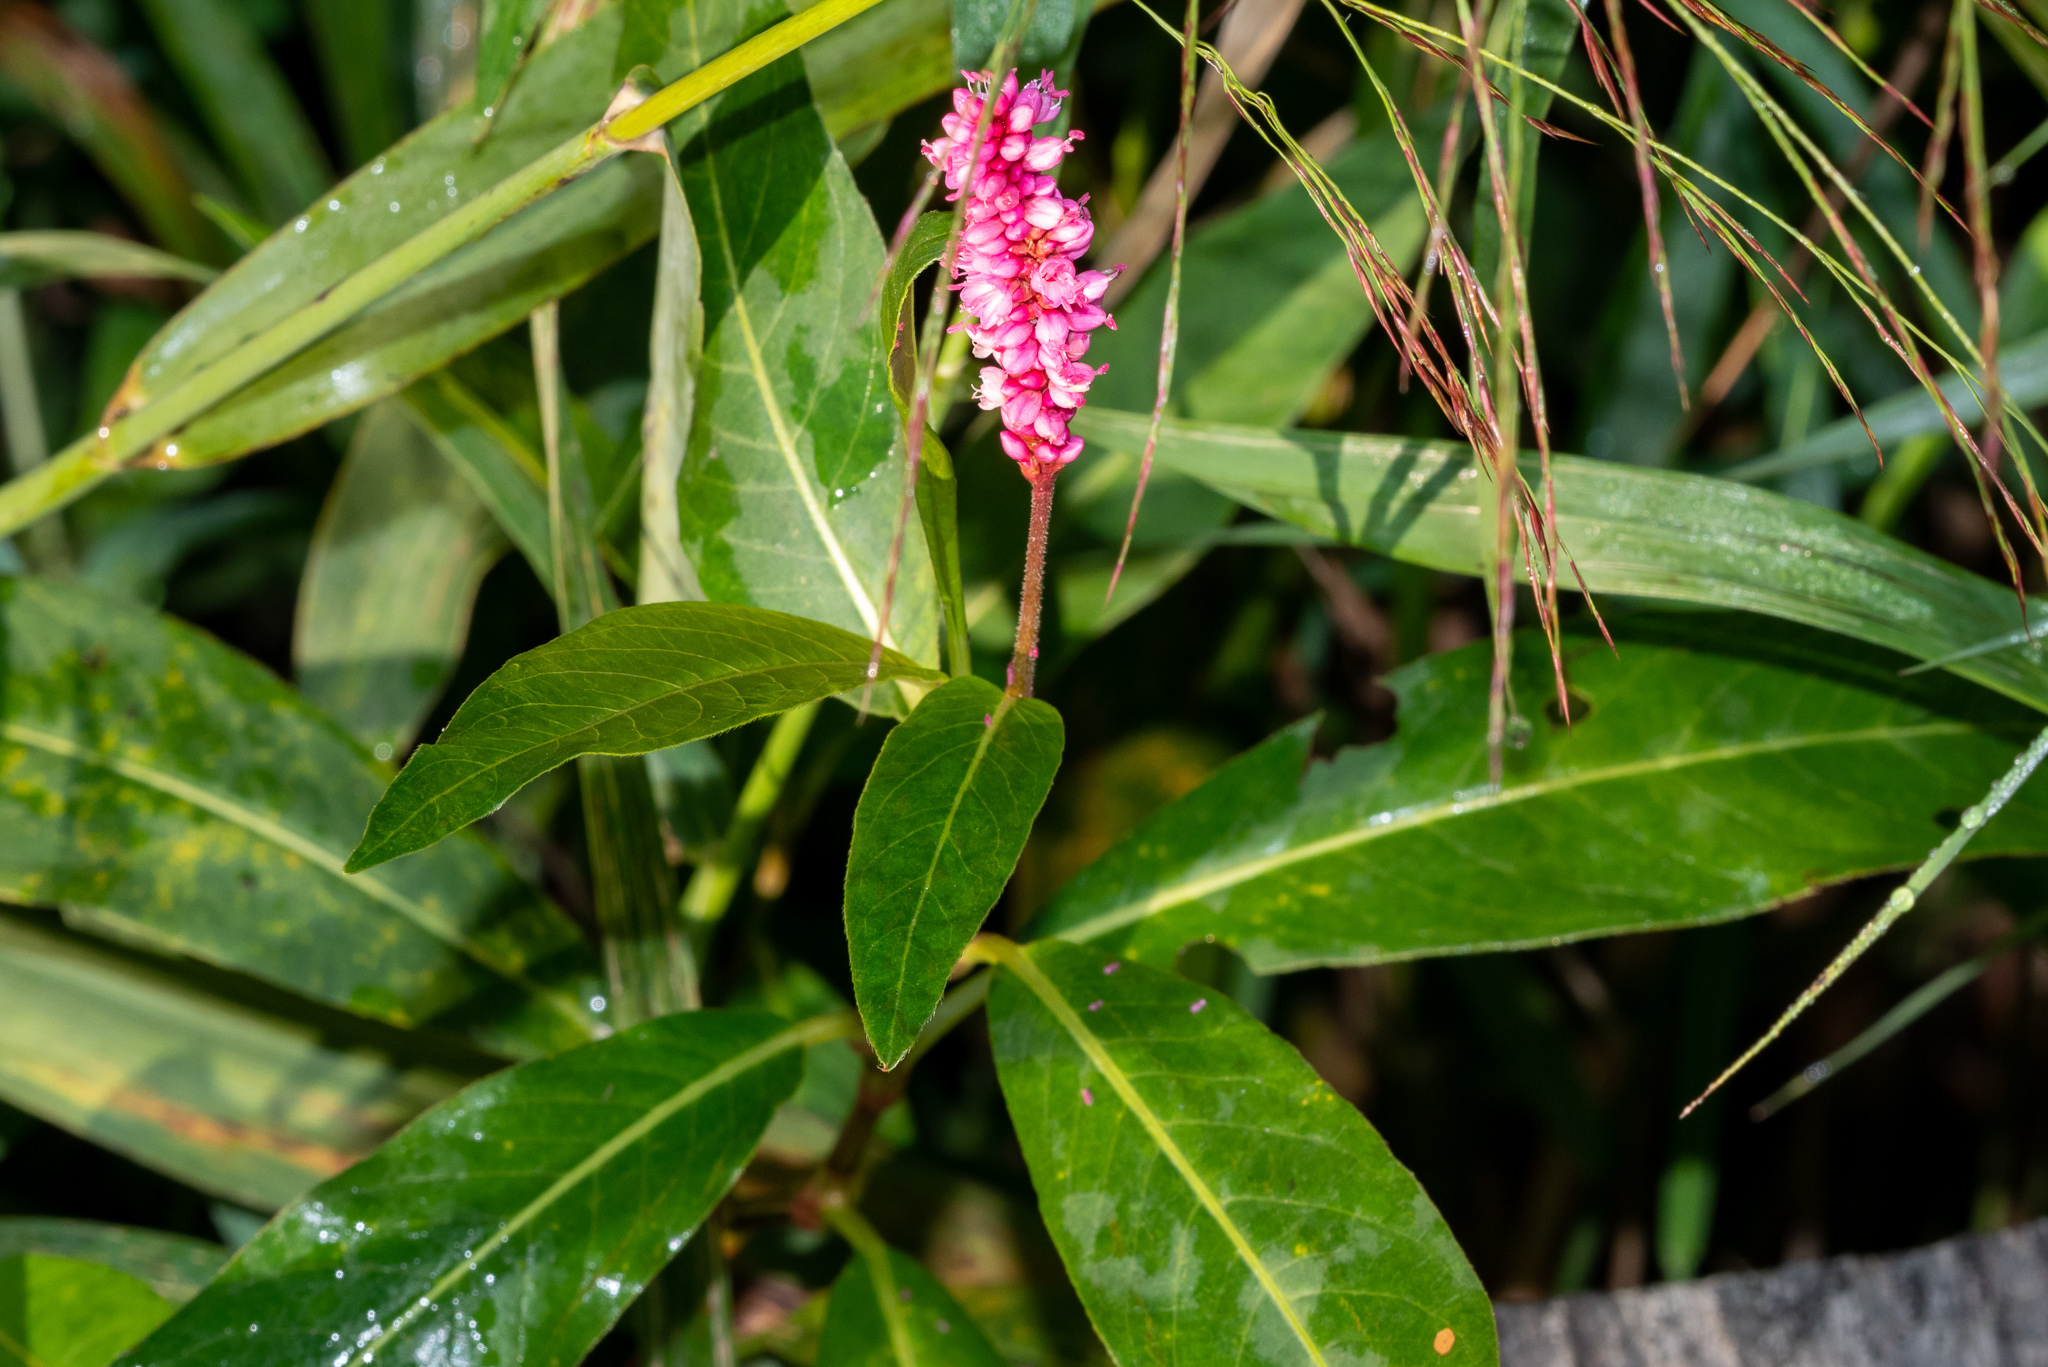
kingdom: Plantae
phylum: Tracheophyta
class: Magnoliopsida
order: Caryophyllales
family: Polygonaceae
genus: Persicaria
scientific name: Persicaria amphibia
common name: Amphibious bistort
